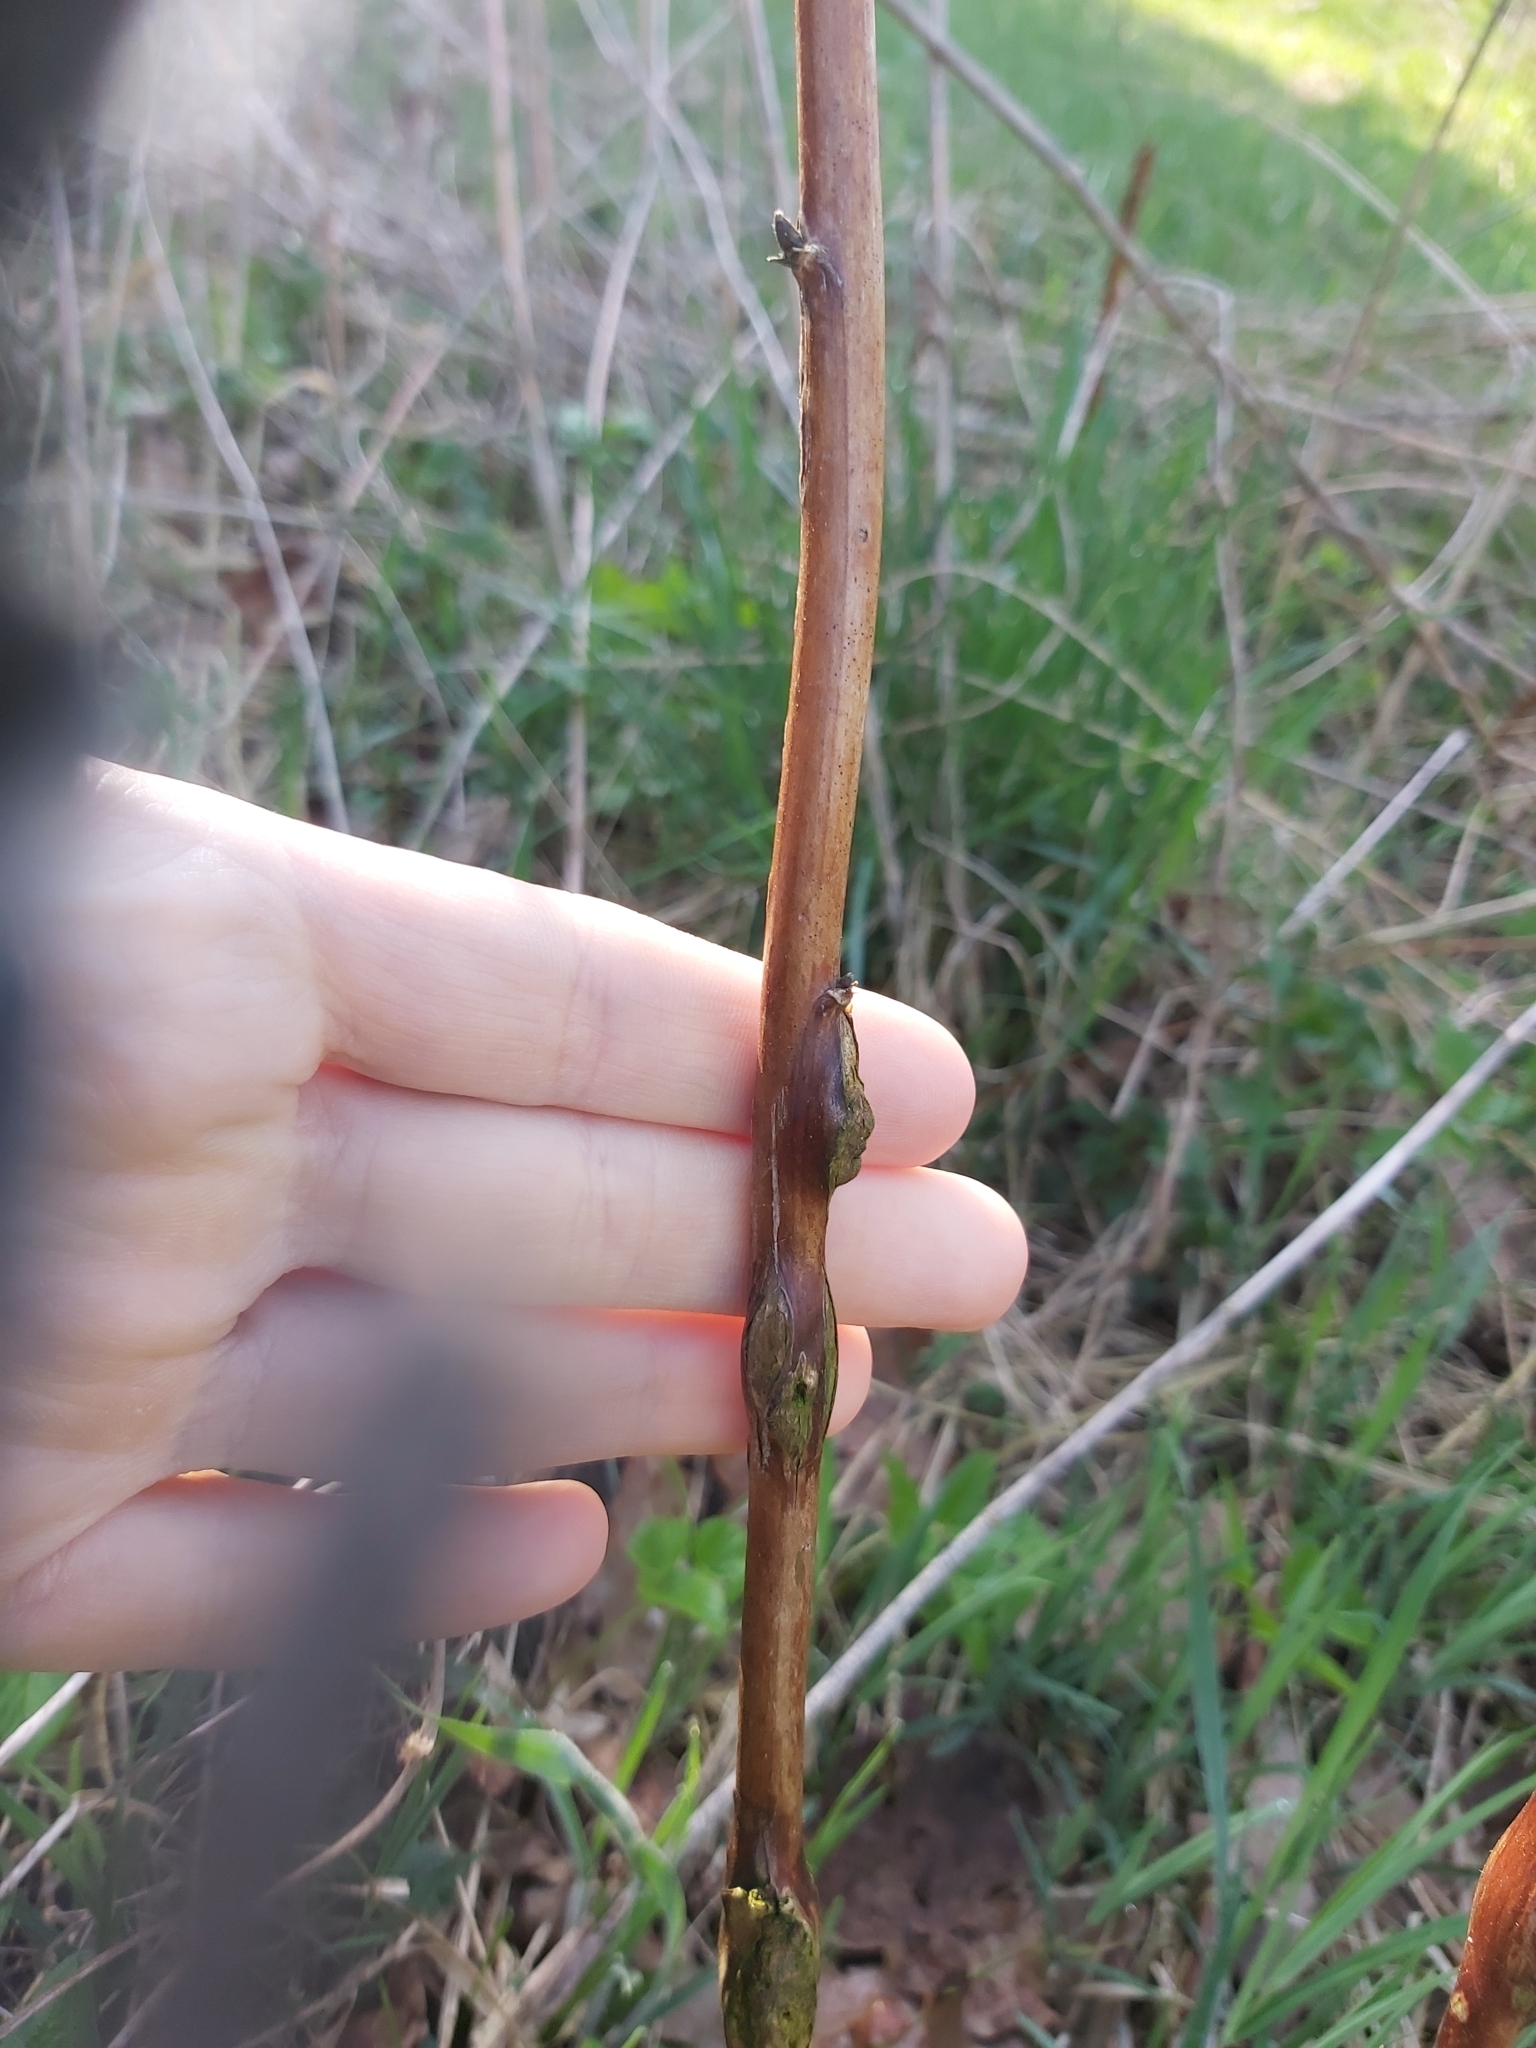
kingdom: Animalia
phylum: Arthropoda
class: Insecta
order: Diptera
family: Cecidomyiidae
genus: Lasioptera
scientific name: Lasioptera rubi
